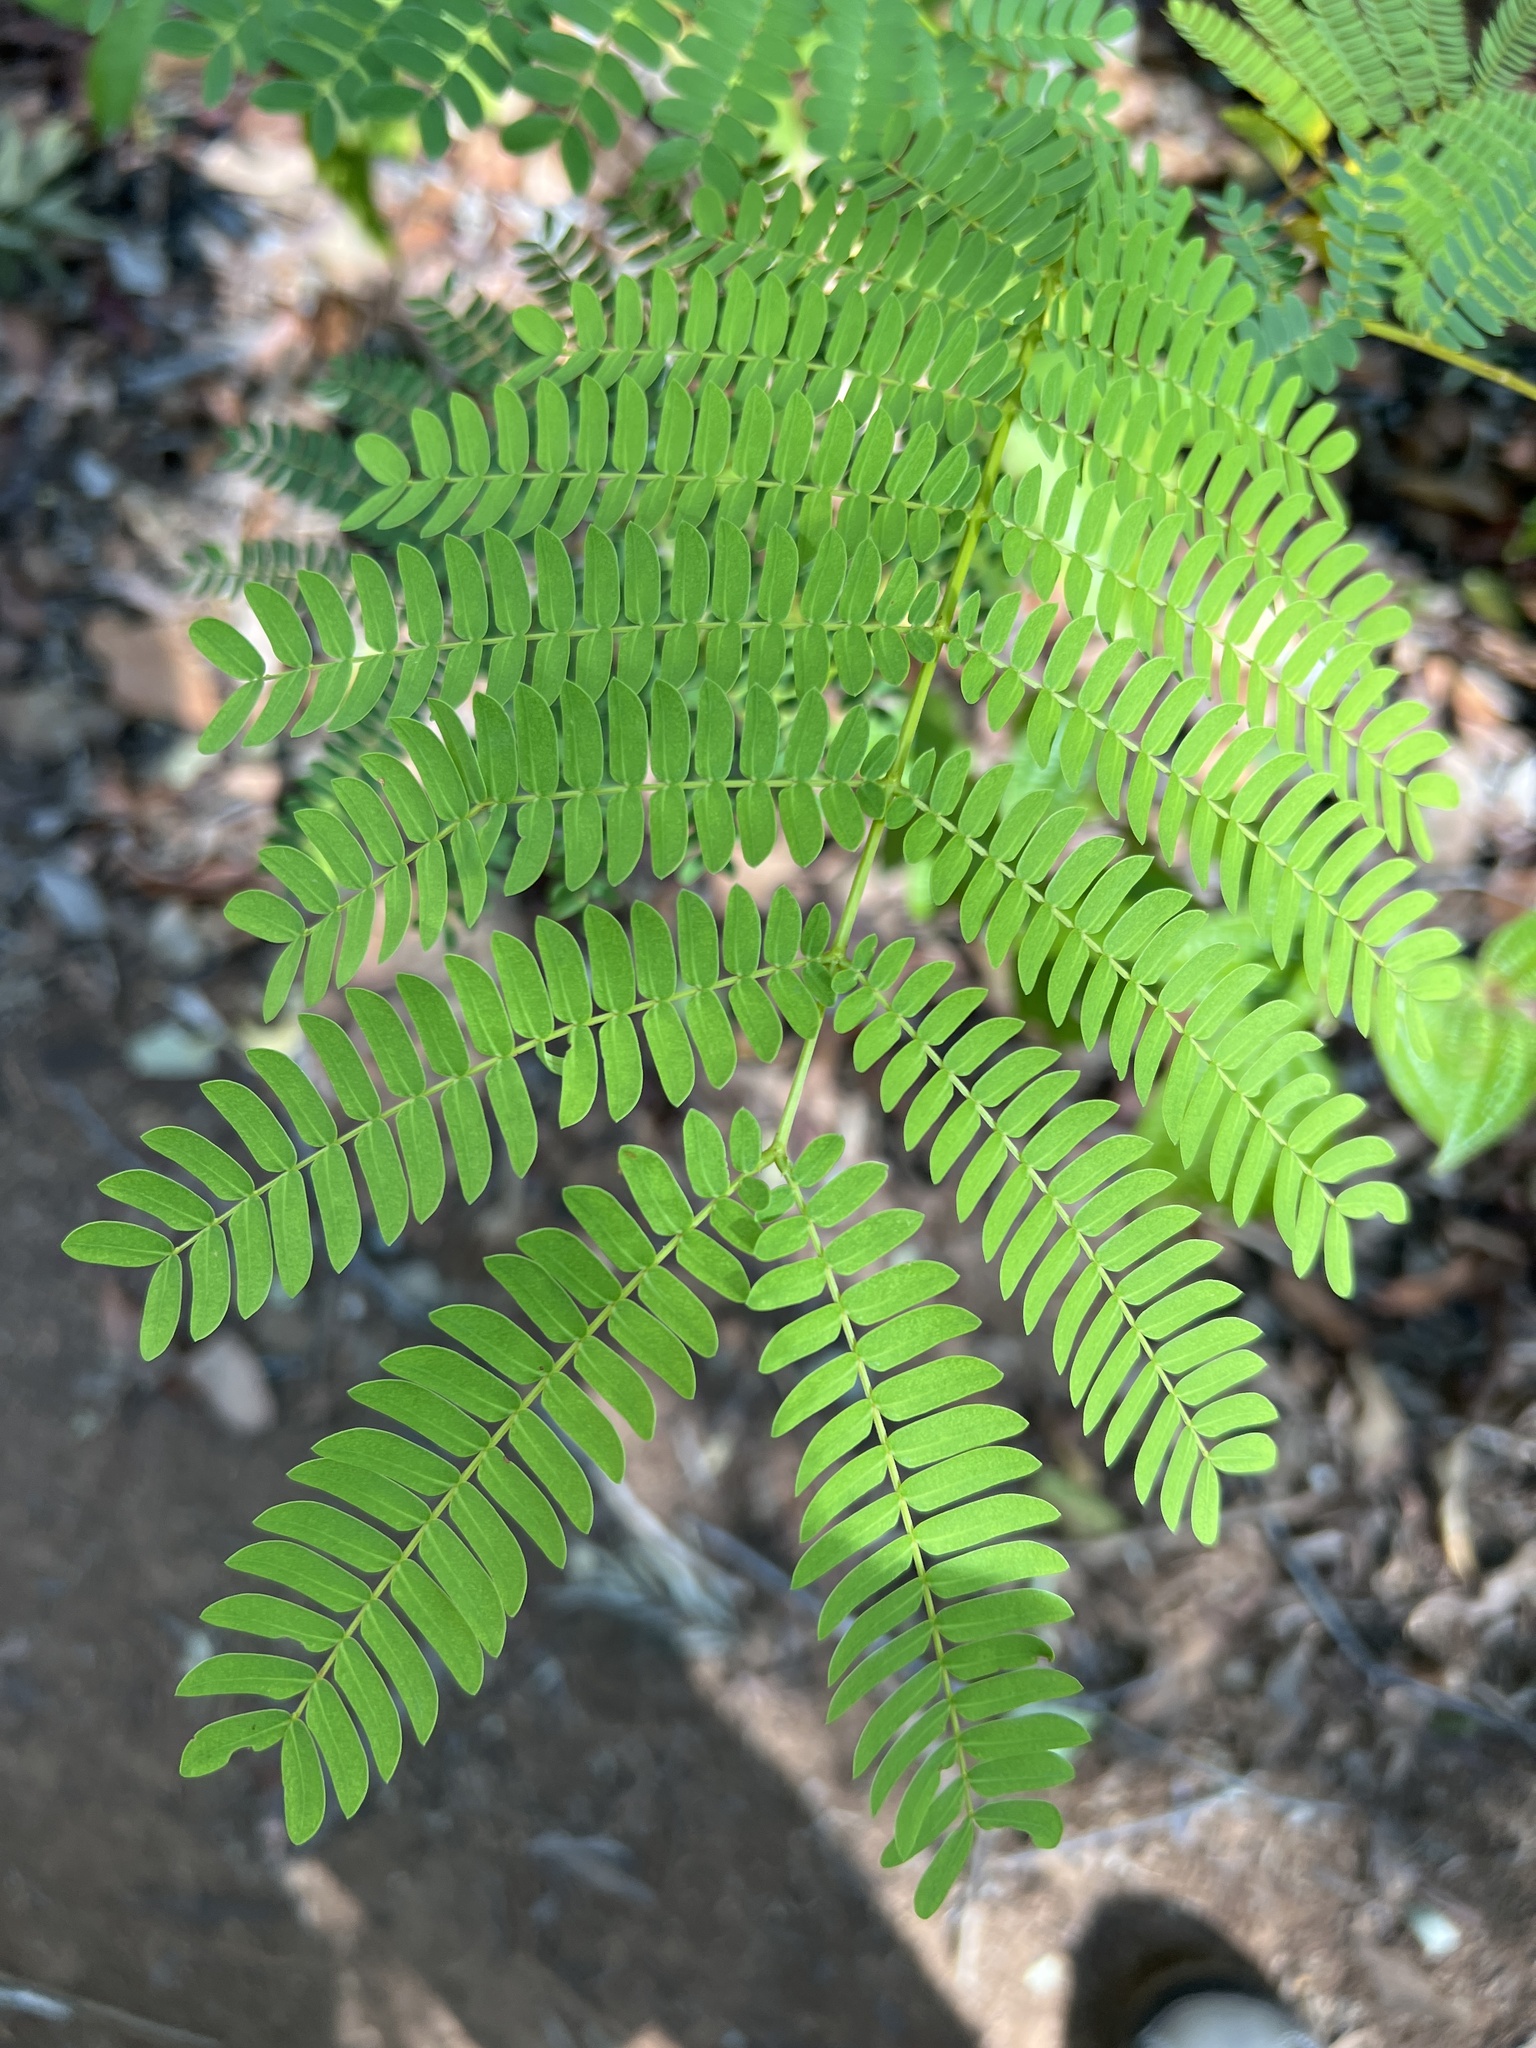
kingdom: Plantae
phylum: Tracheophyta
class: Magnoliopsida
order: Fabales
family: Fabaceae
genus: Leucaena
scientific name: Leucaena leucocephala
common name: White leadtree
